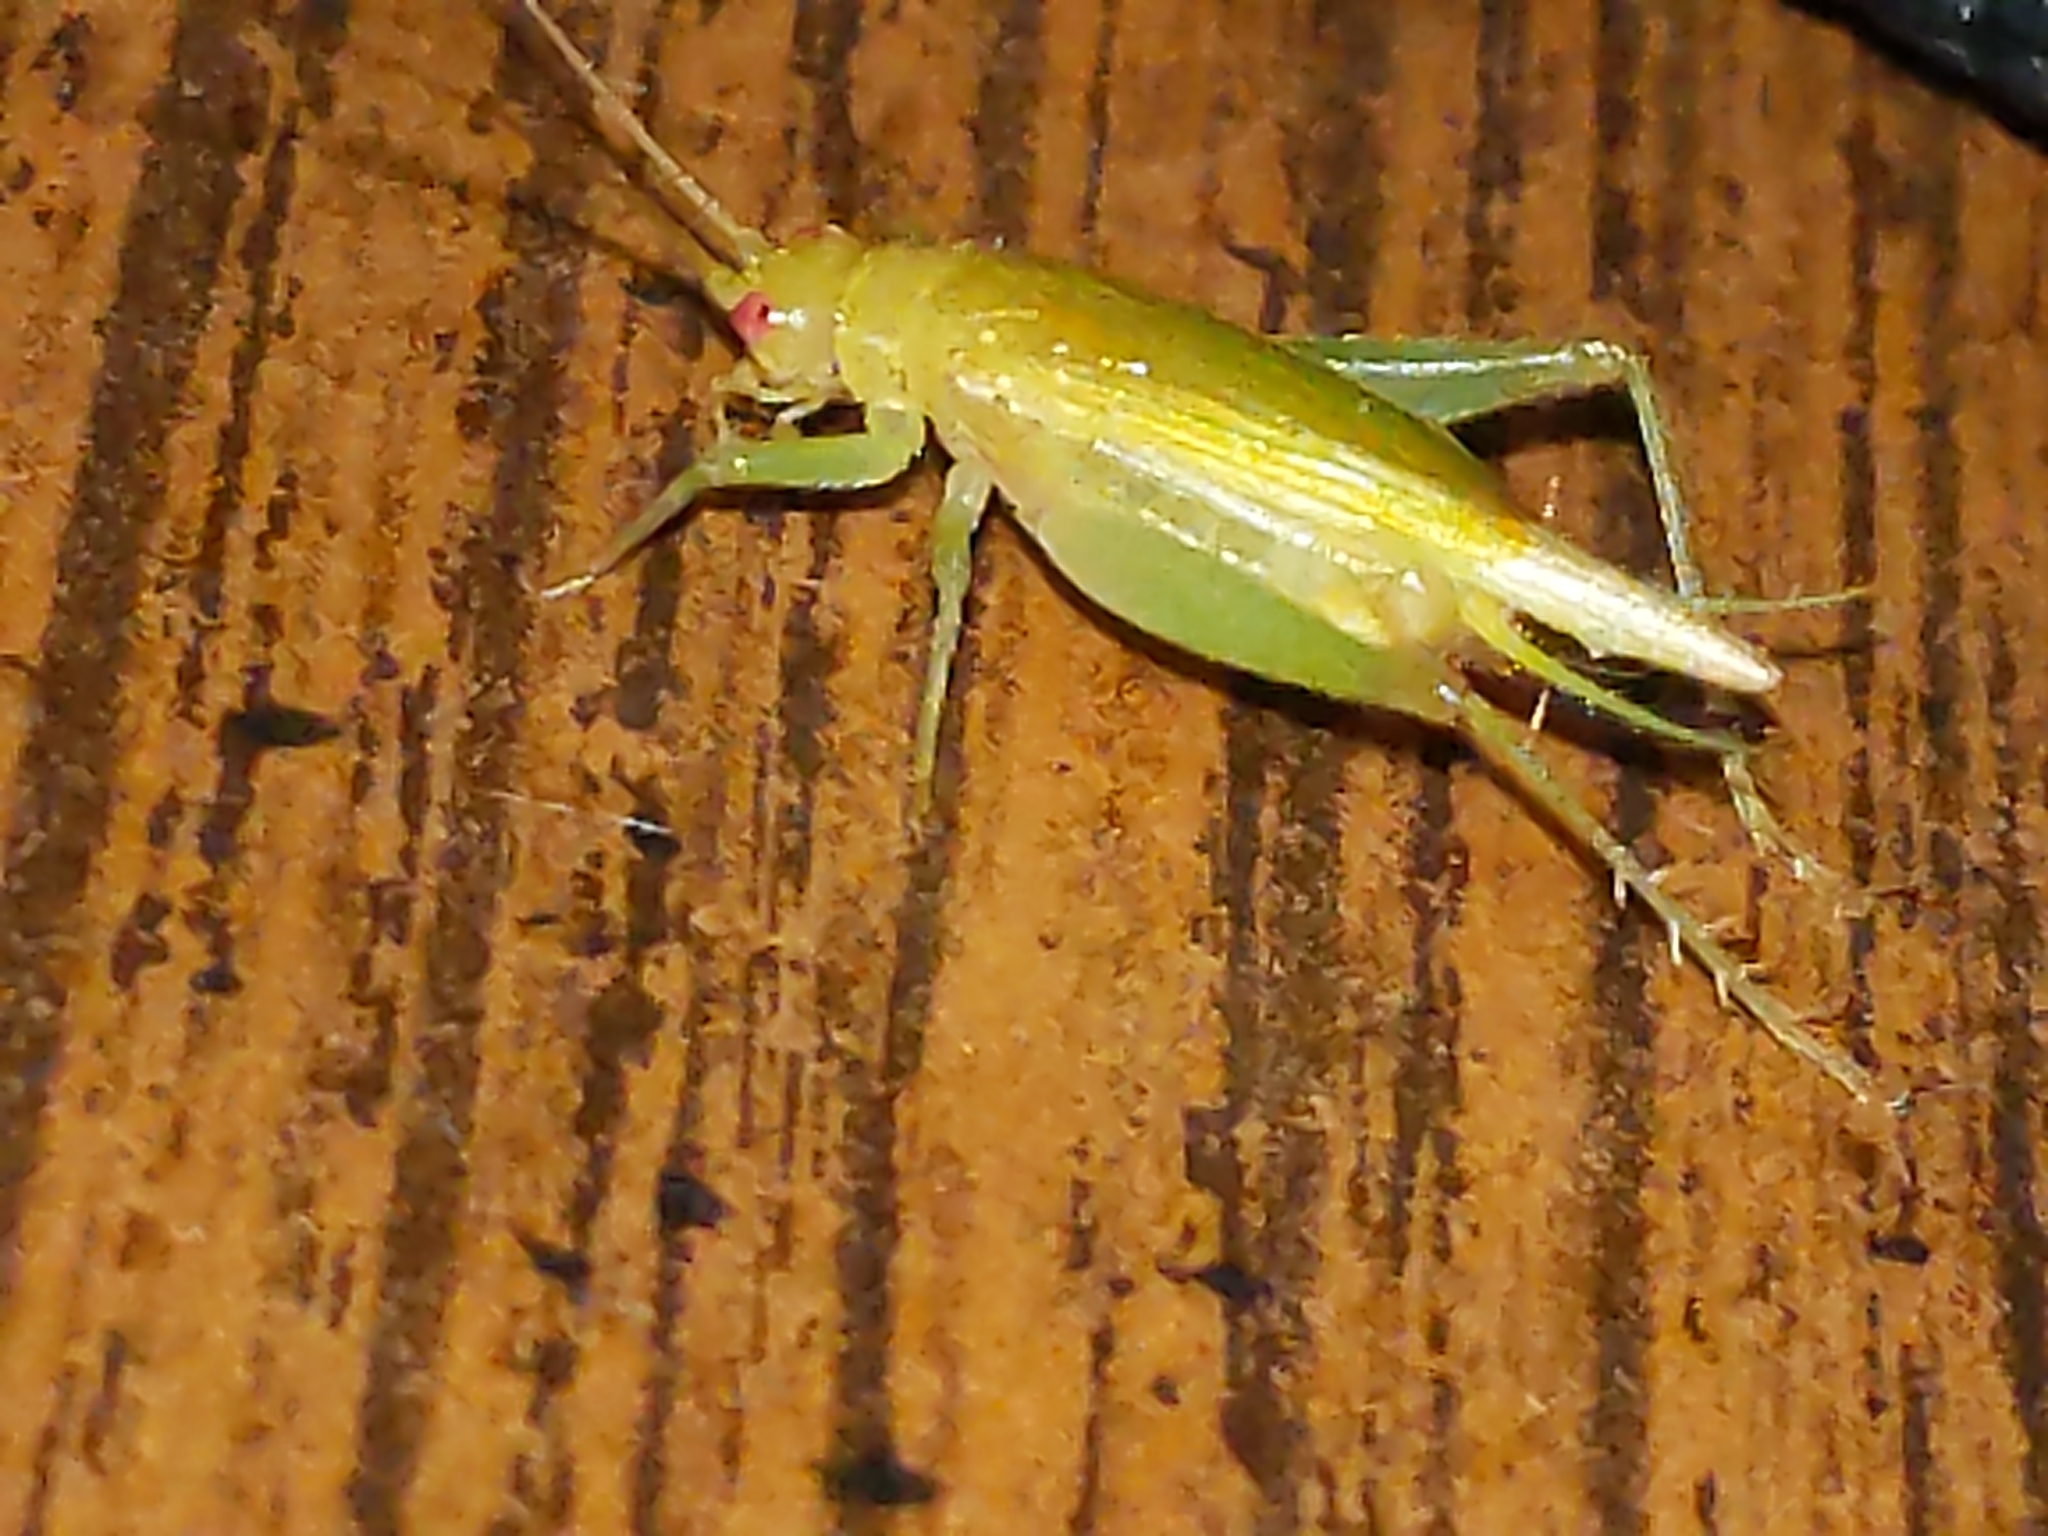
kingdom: Animalia
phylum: Arthropoda
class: Insecta
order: Orthoptera
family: Trigonidiidae
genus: Cyrtoxipha
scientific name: Cyrtoxipha columbiana
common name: Columbian trig
